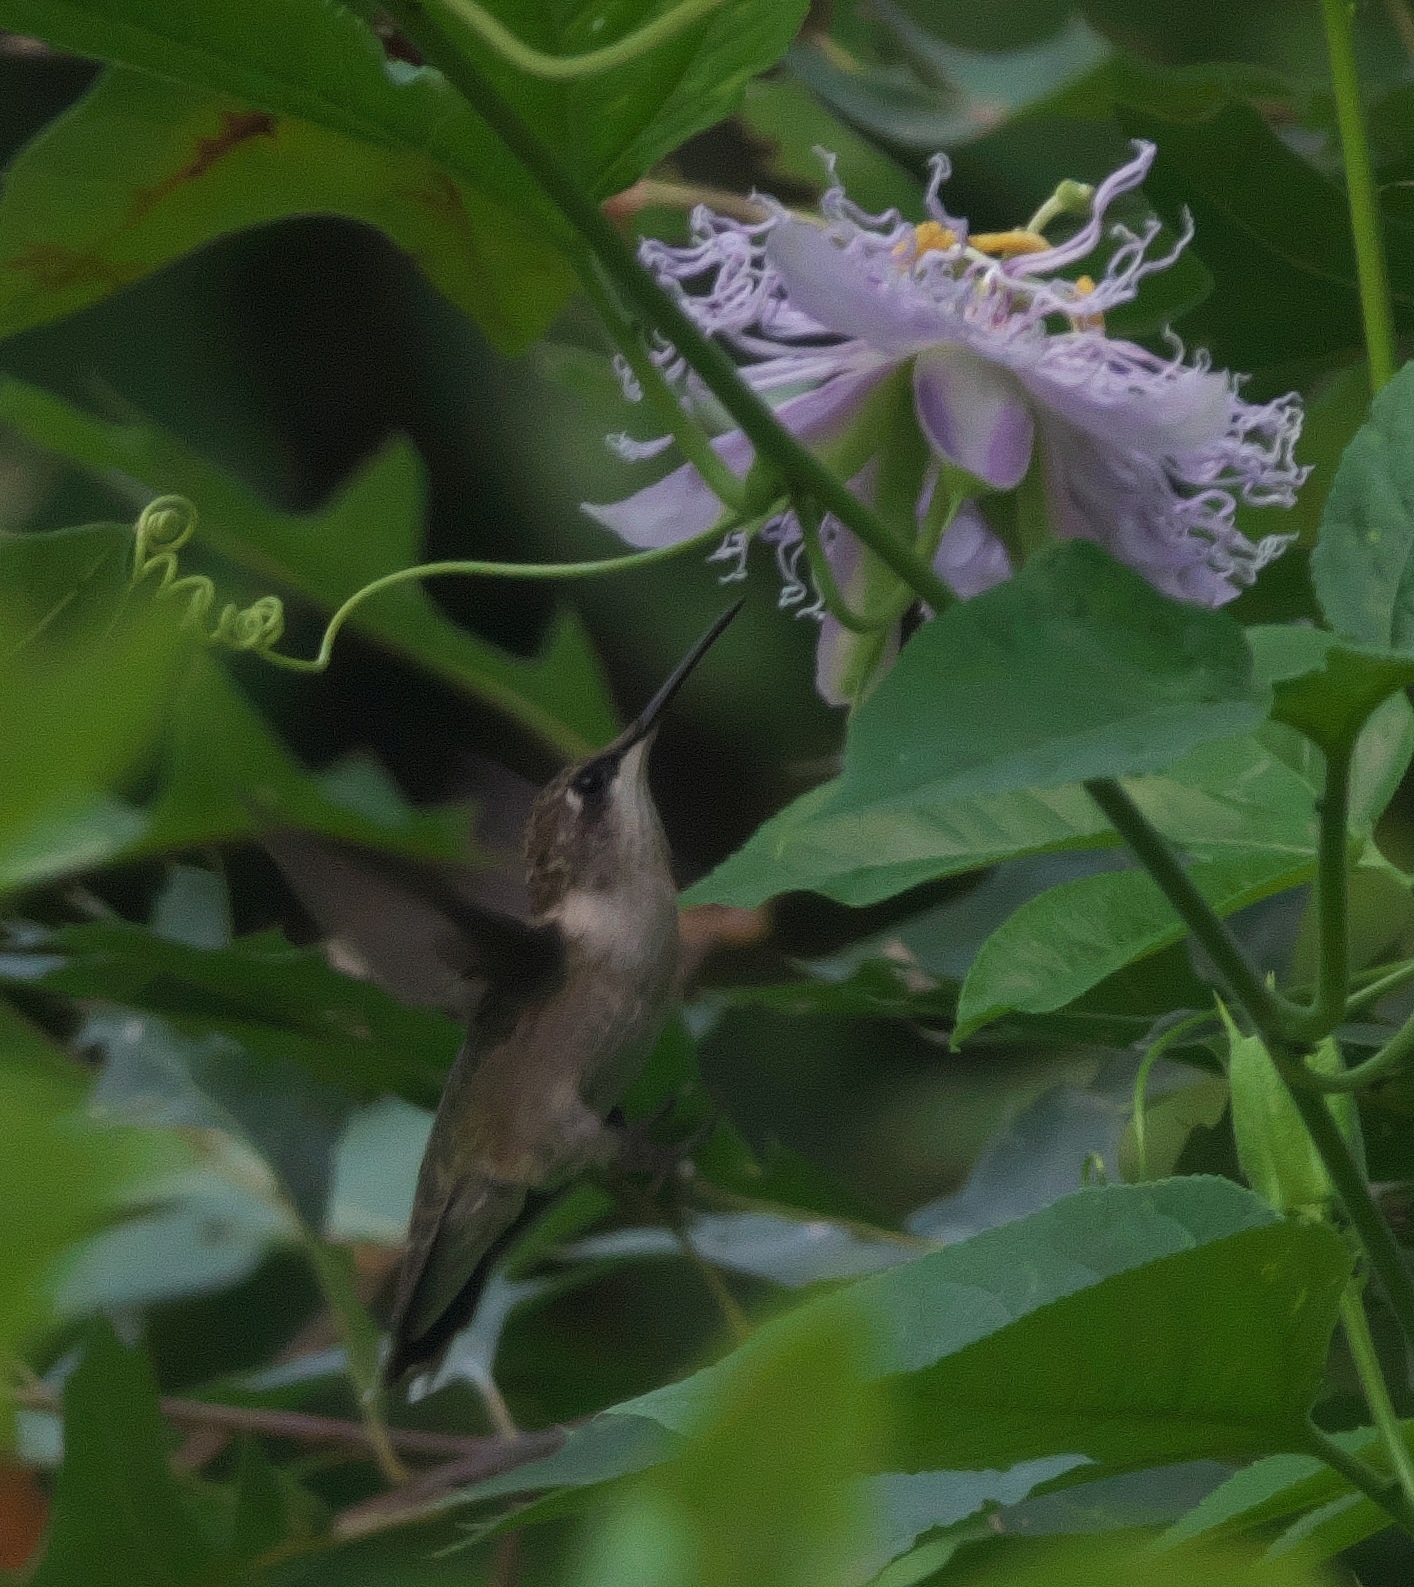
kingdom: Animalia
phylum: Chordata
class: Aves
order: Apodiformes
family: Trochilidae
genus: Archilochus
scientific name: Archilochus colubris
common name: Ruby-throated hummingbird
